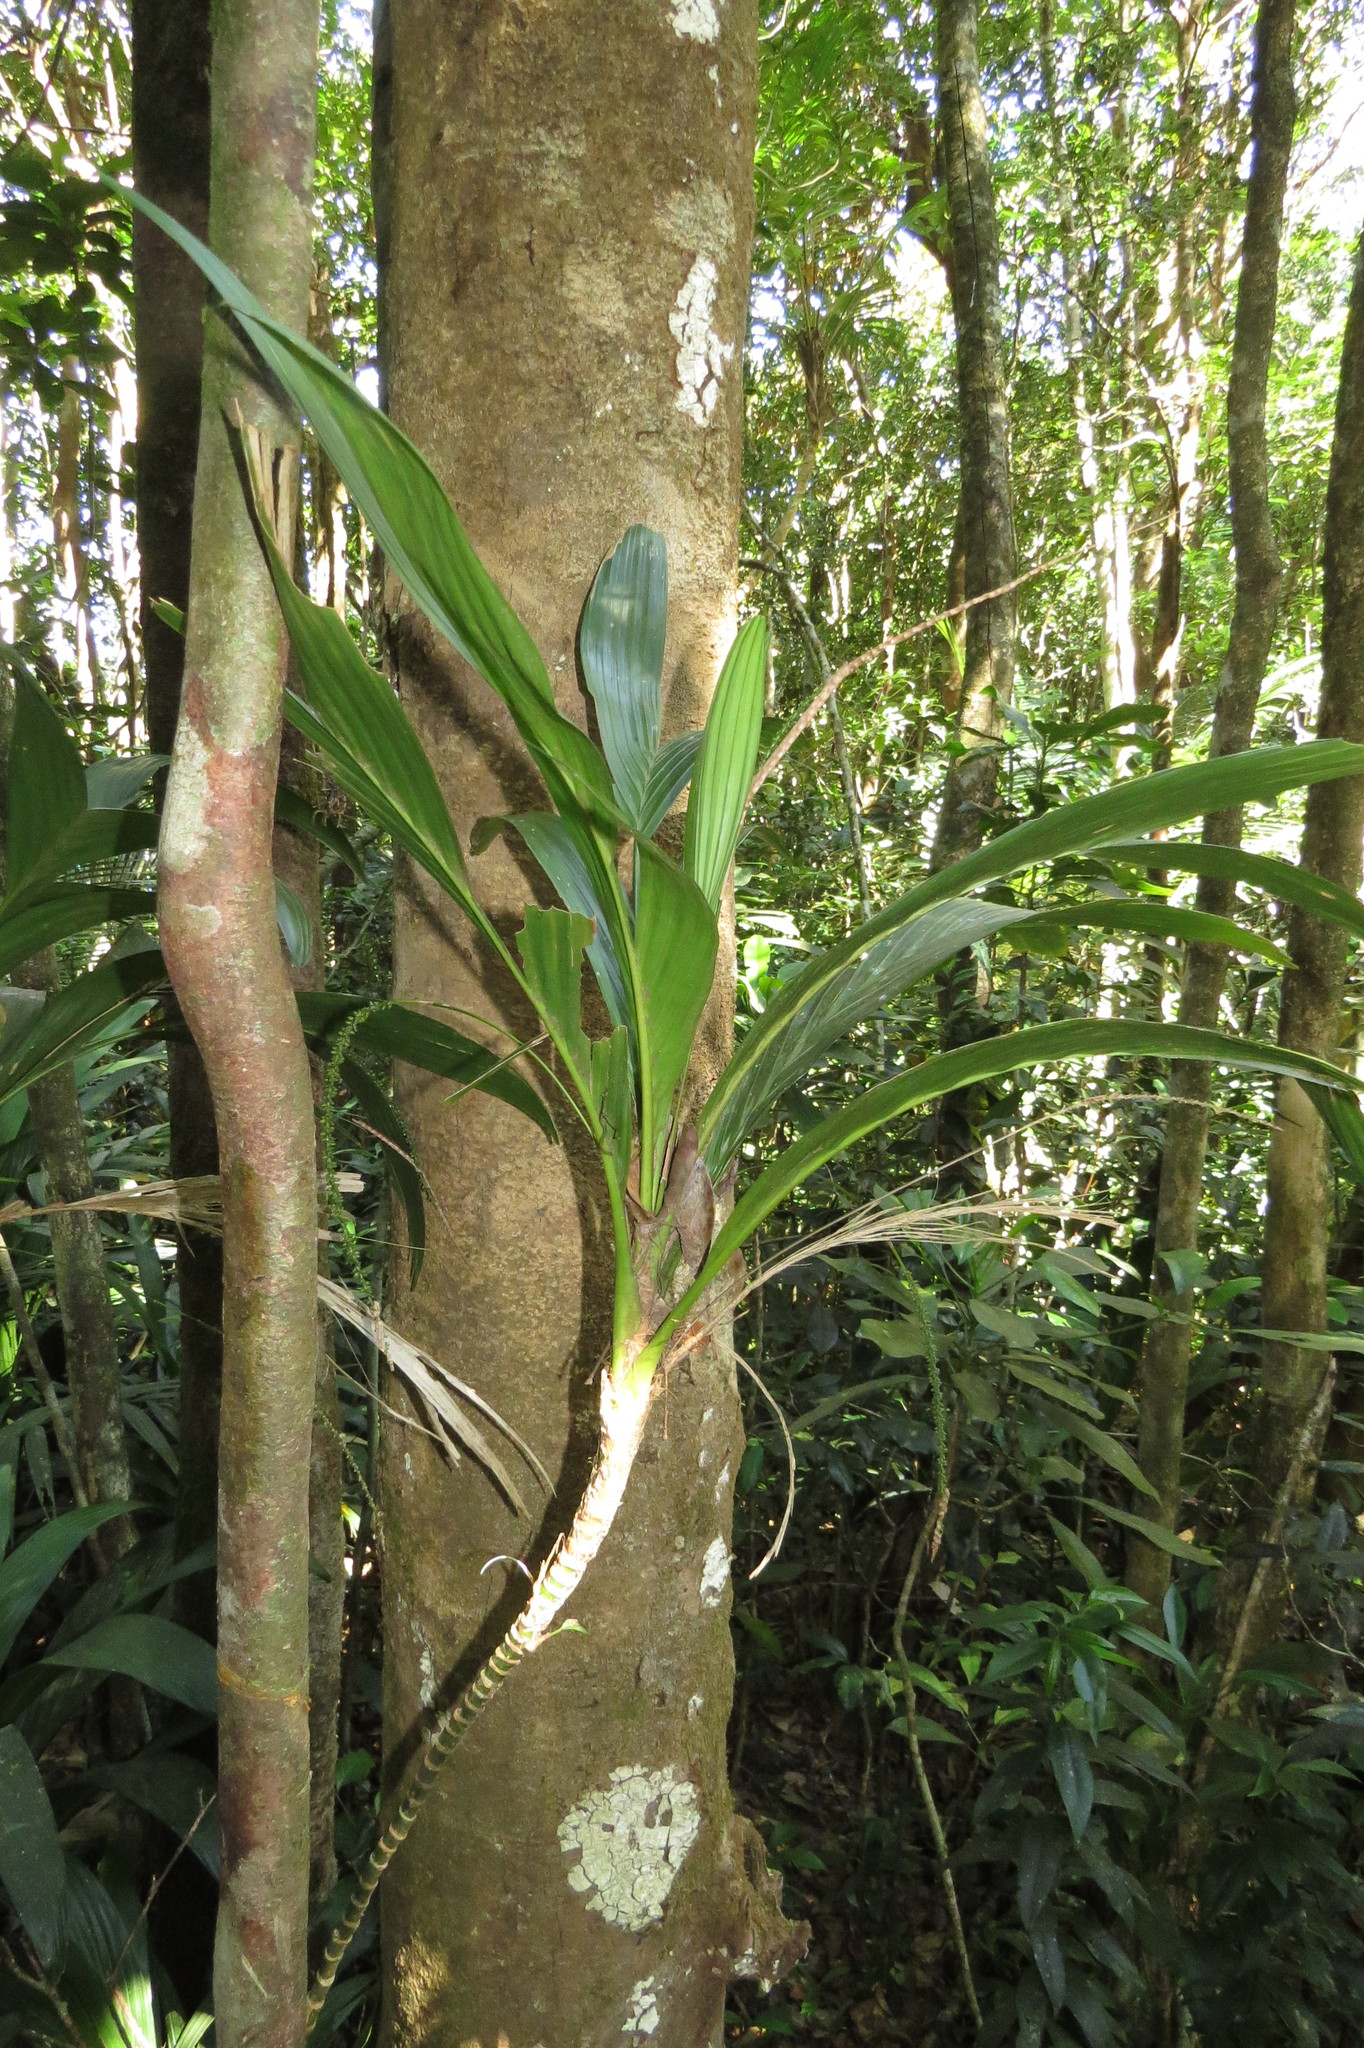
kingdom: Plantae
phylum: Tracheophyta
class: Liliopsida
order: Arecales
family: Arecaceae
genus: Linospadix
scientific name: Linospadix apetiolatus
